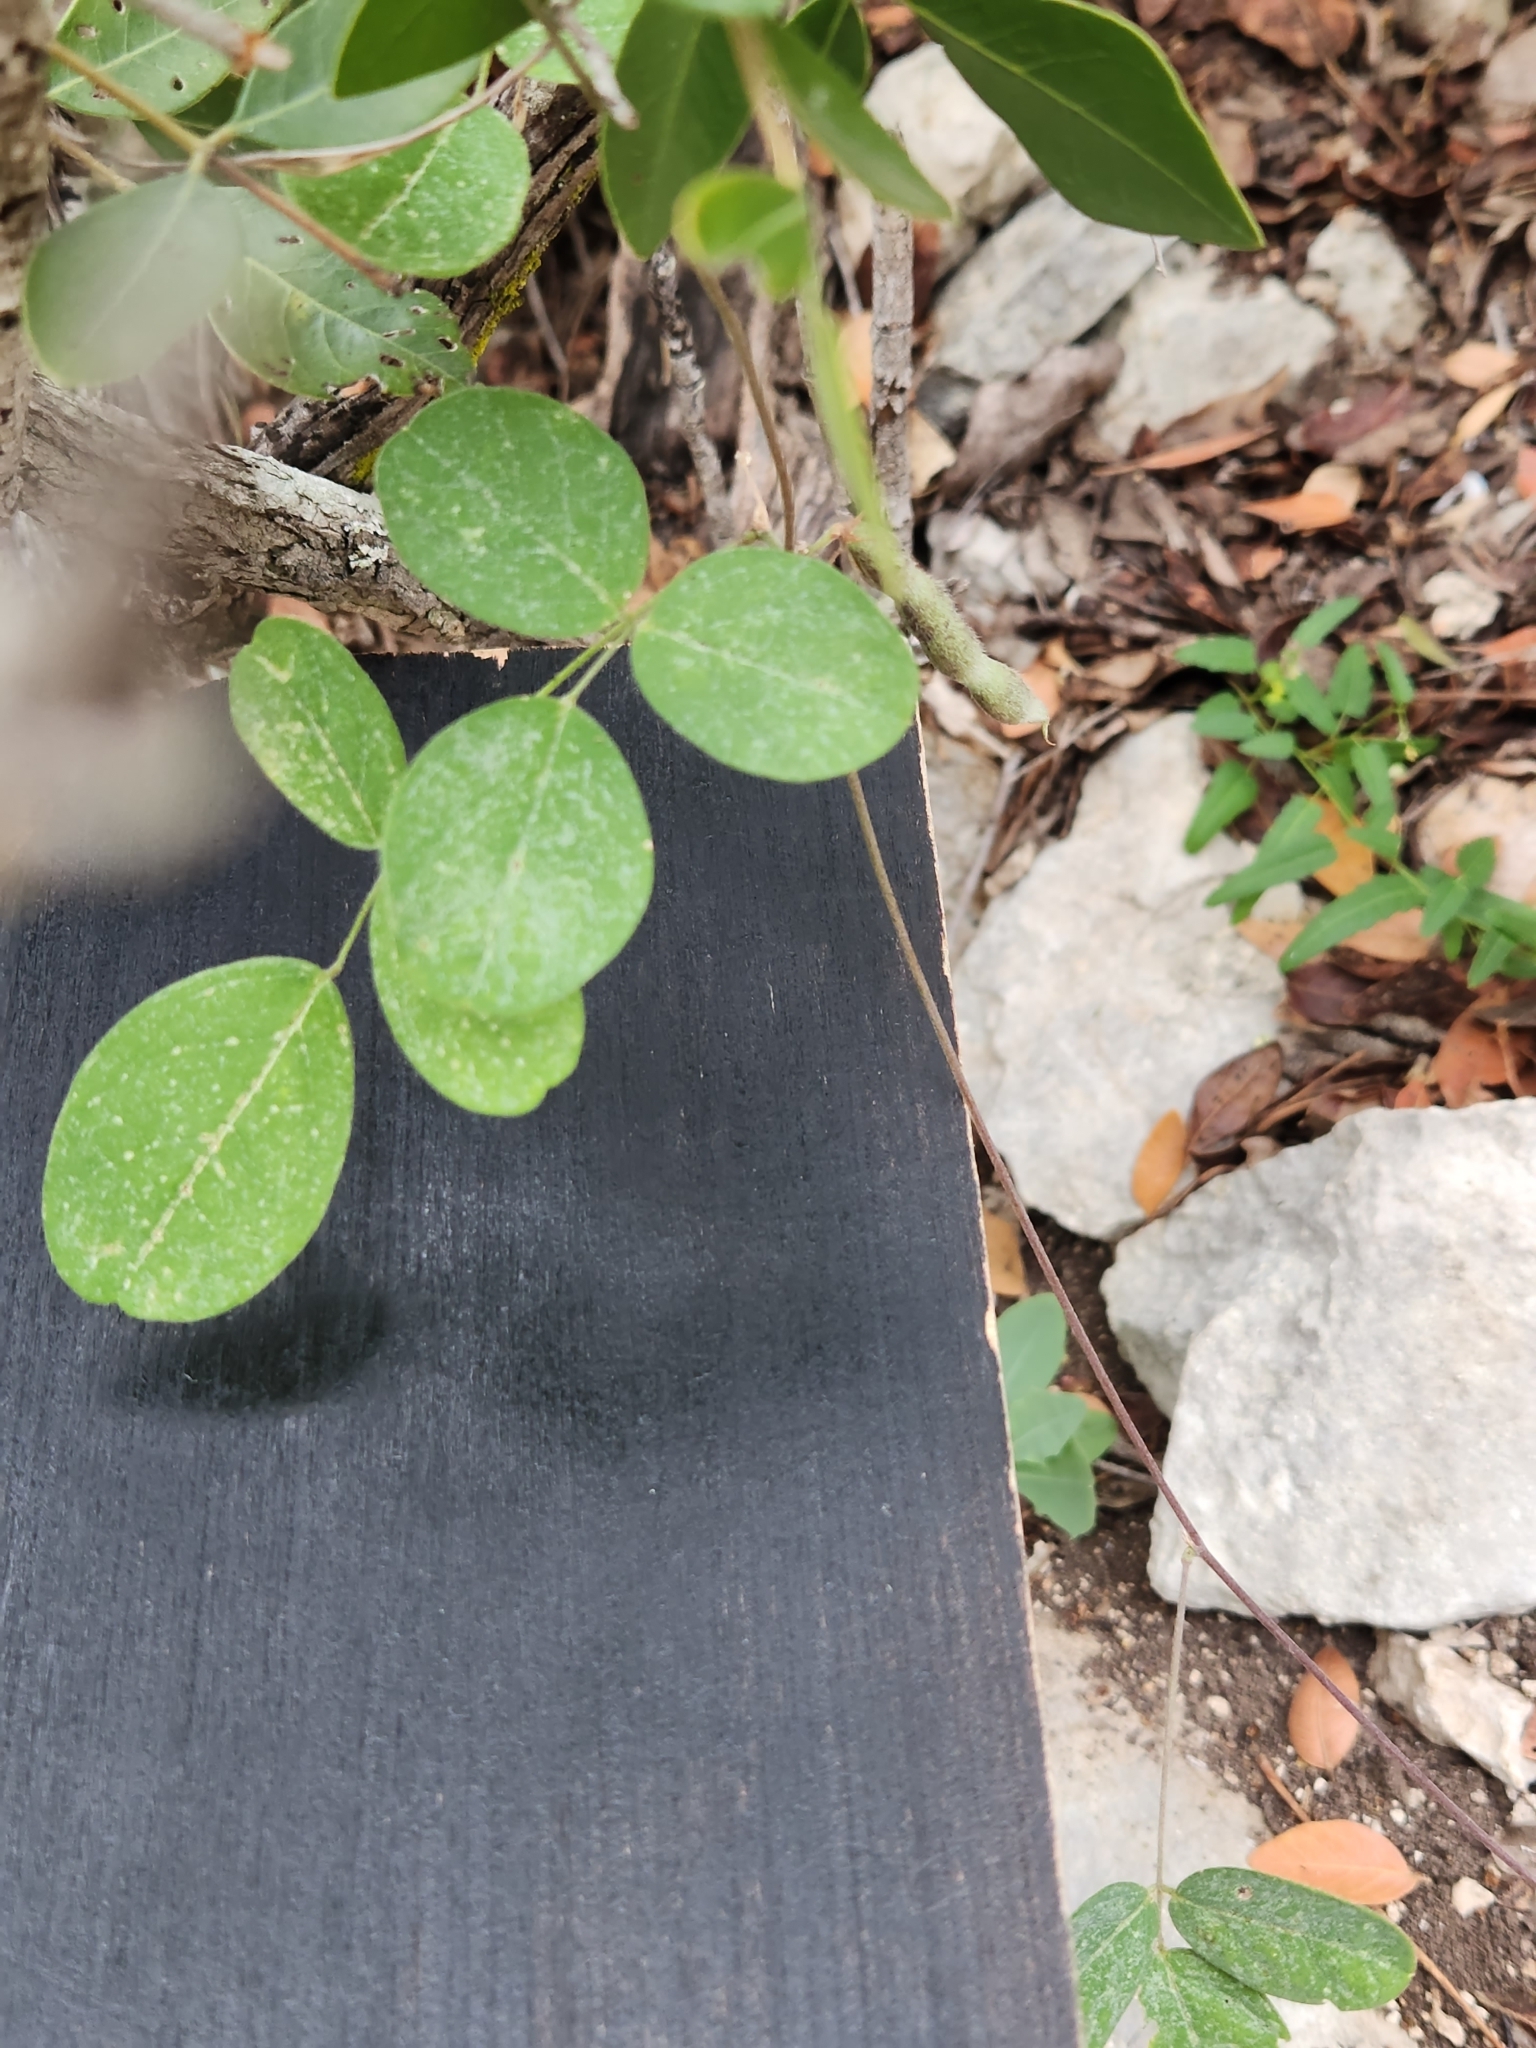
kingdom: Plantae
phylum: Tracheophyta
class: Magnoliopsida
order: Fabales
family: Fabaceae
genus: Galactia
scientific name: Galactia regularis
